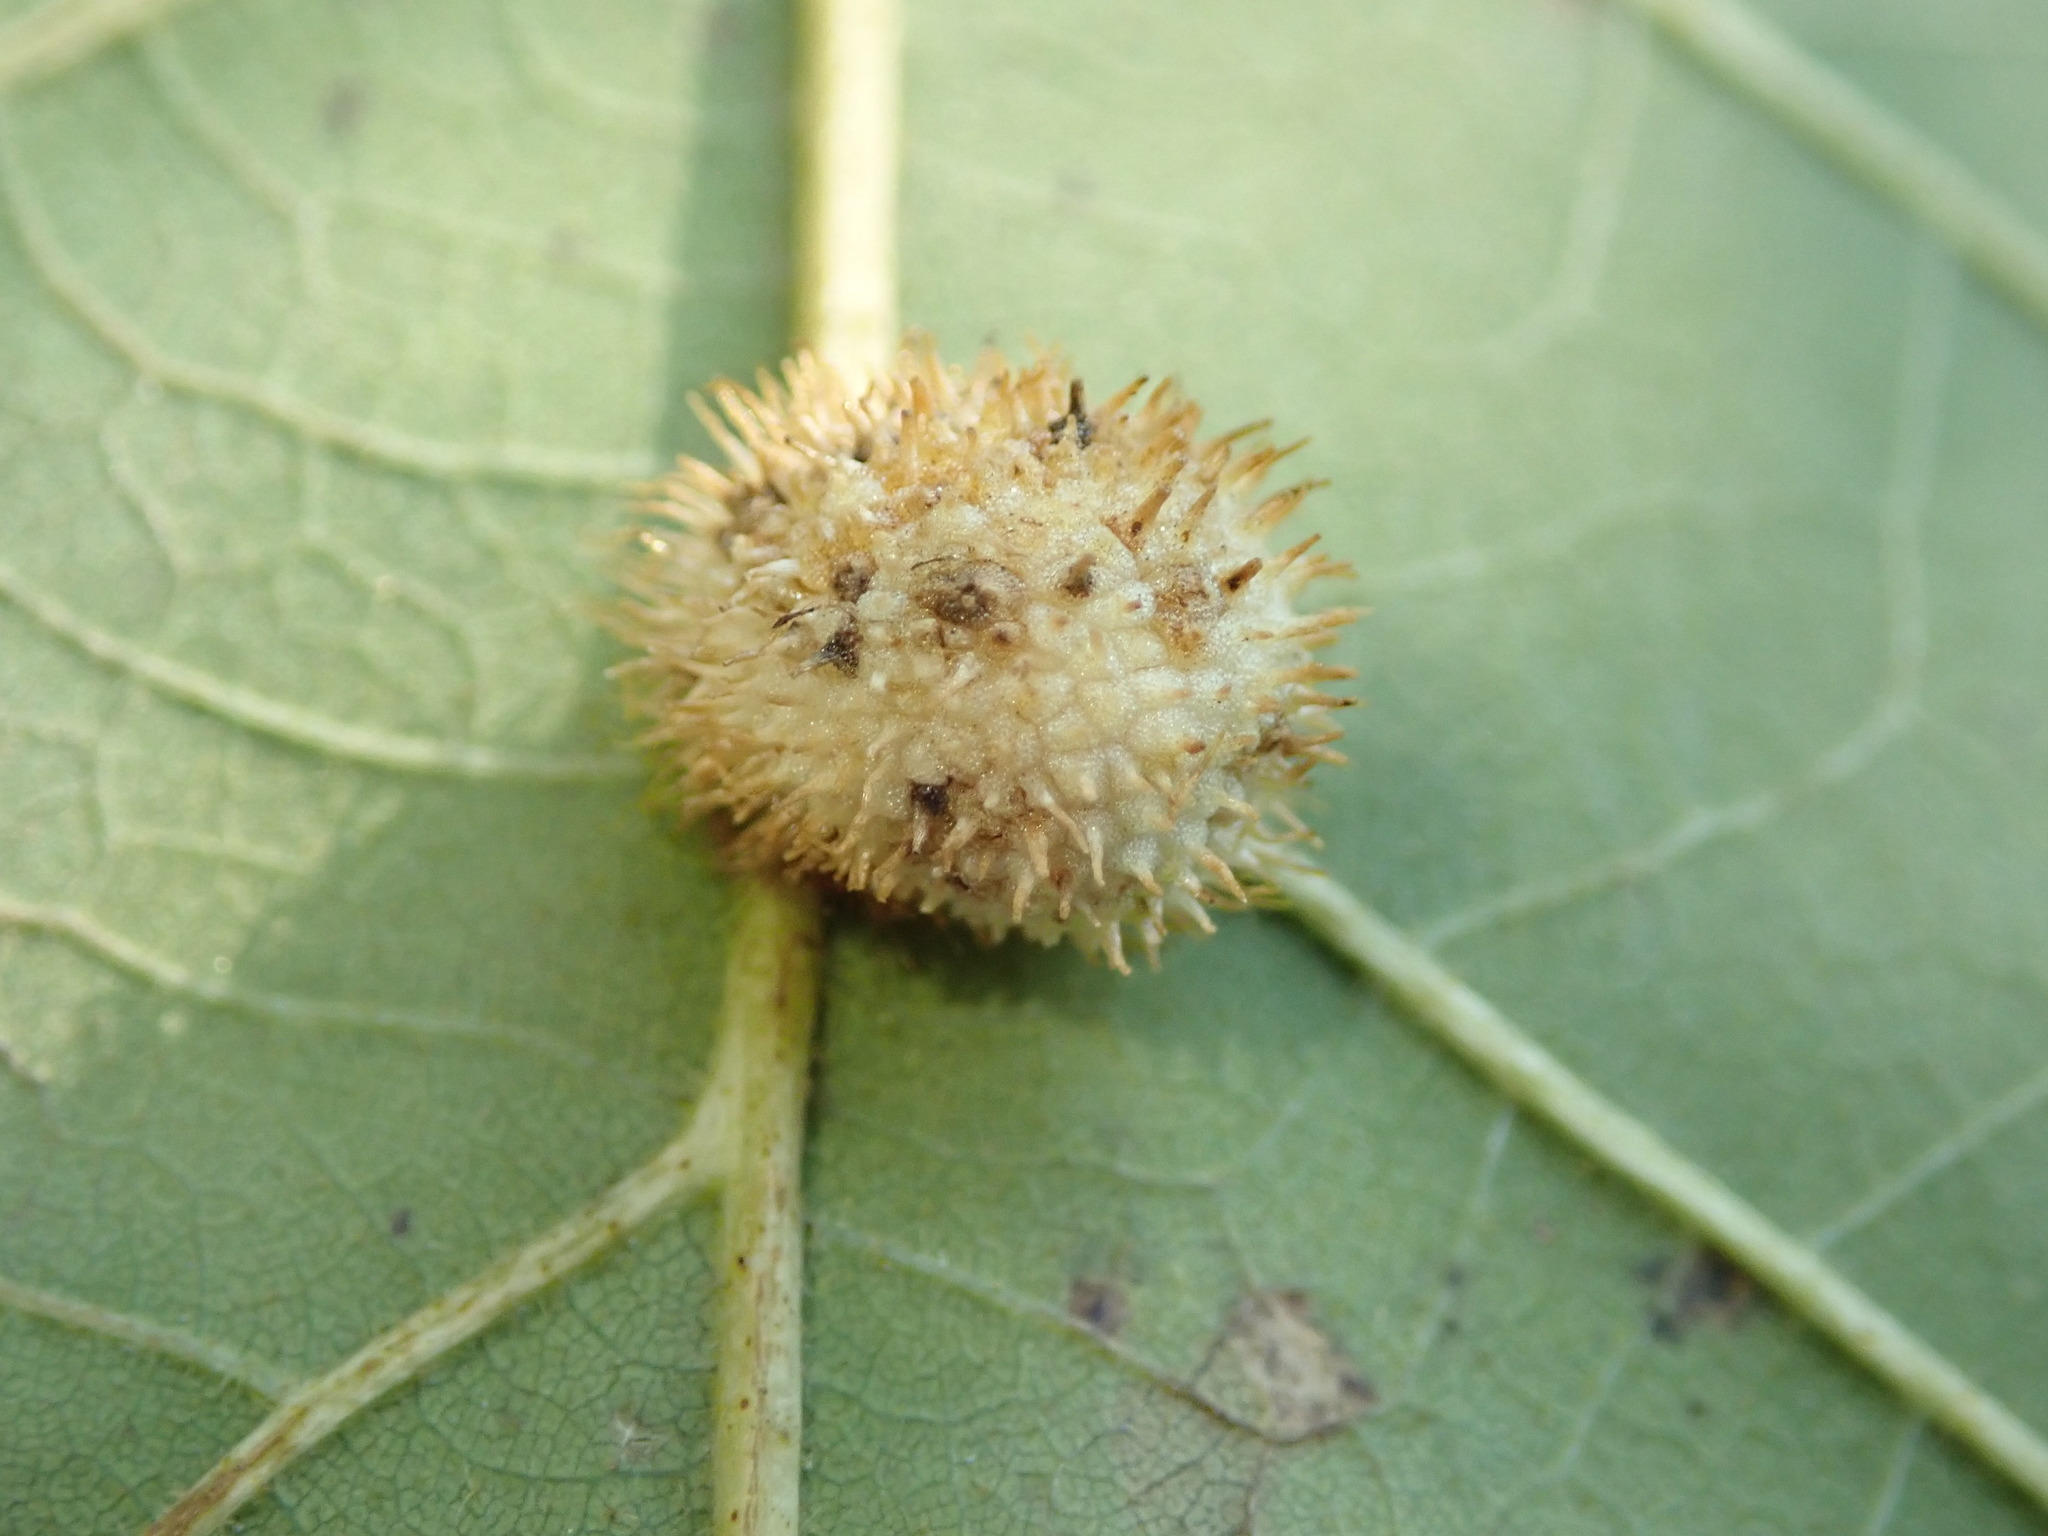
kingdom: Animalia
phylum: Arthropoda
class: Insecta
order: Hymenoptera
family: Cynipidae
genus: Acraspis
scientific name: Acraspis villosa
